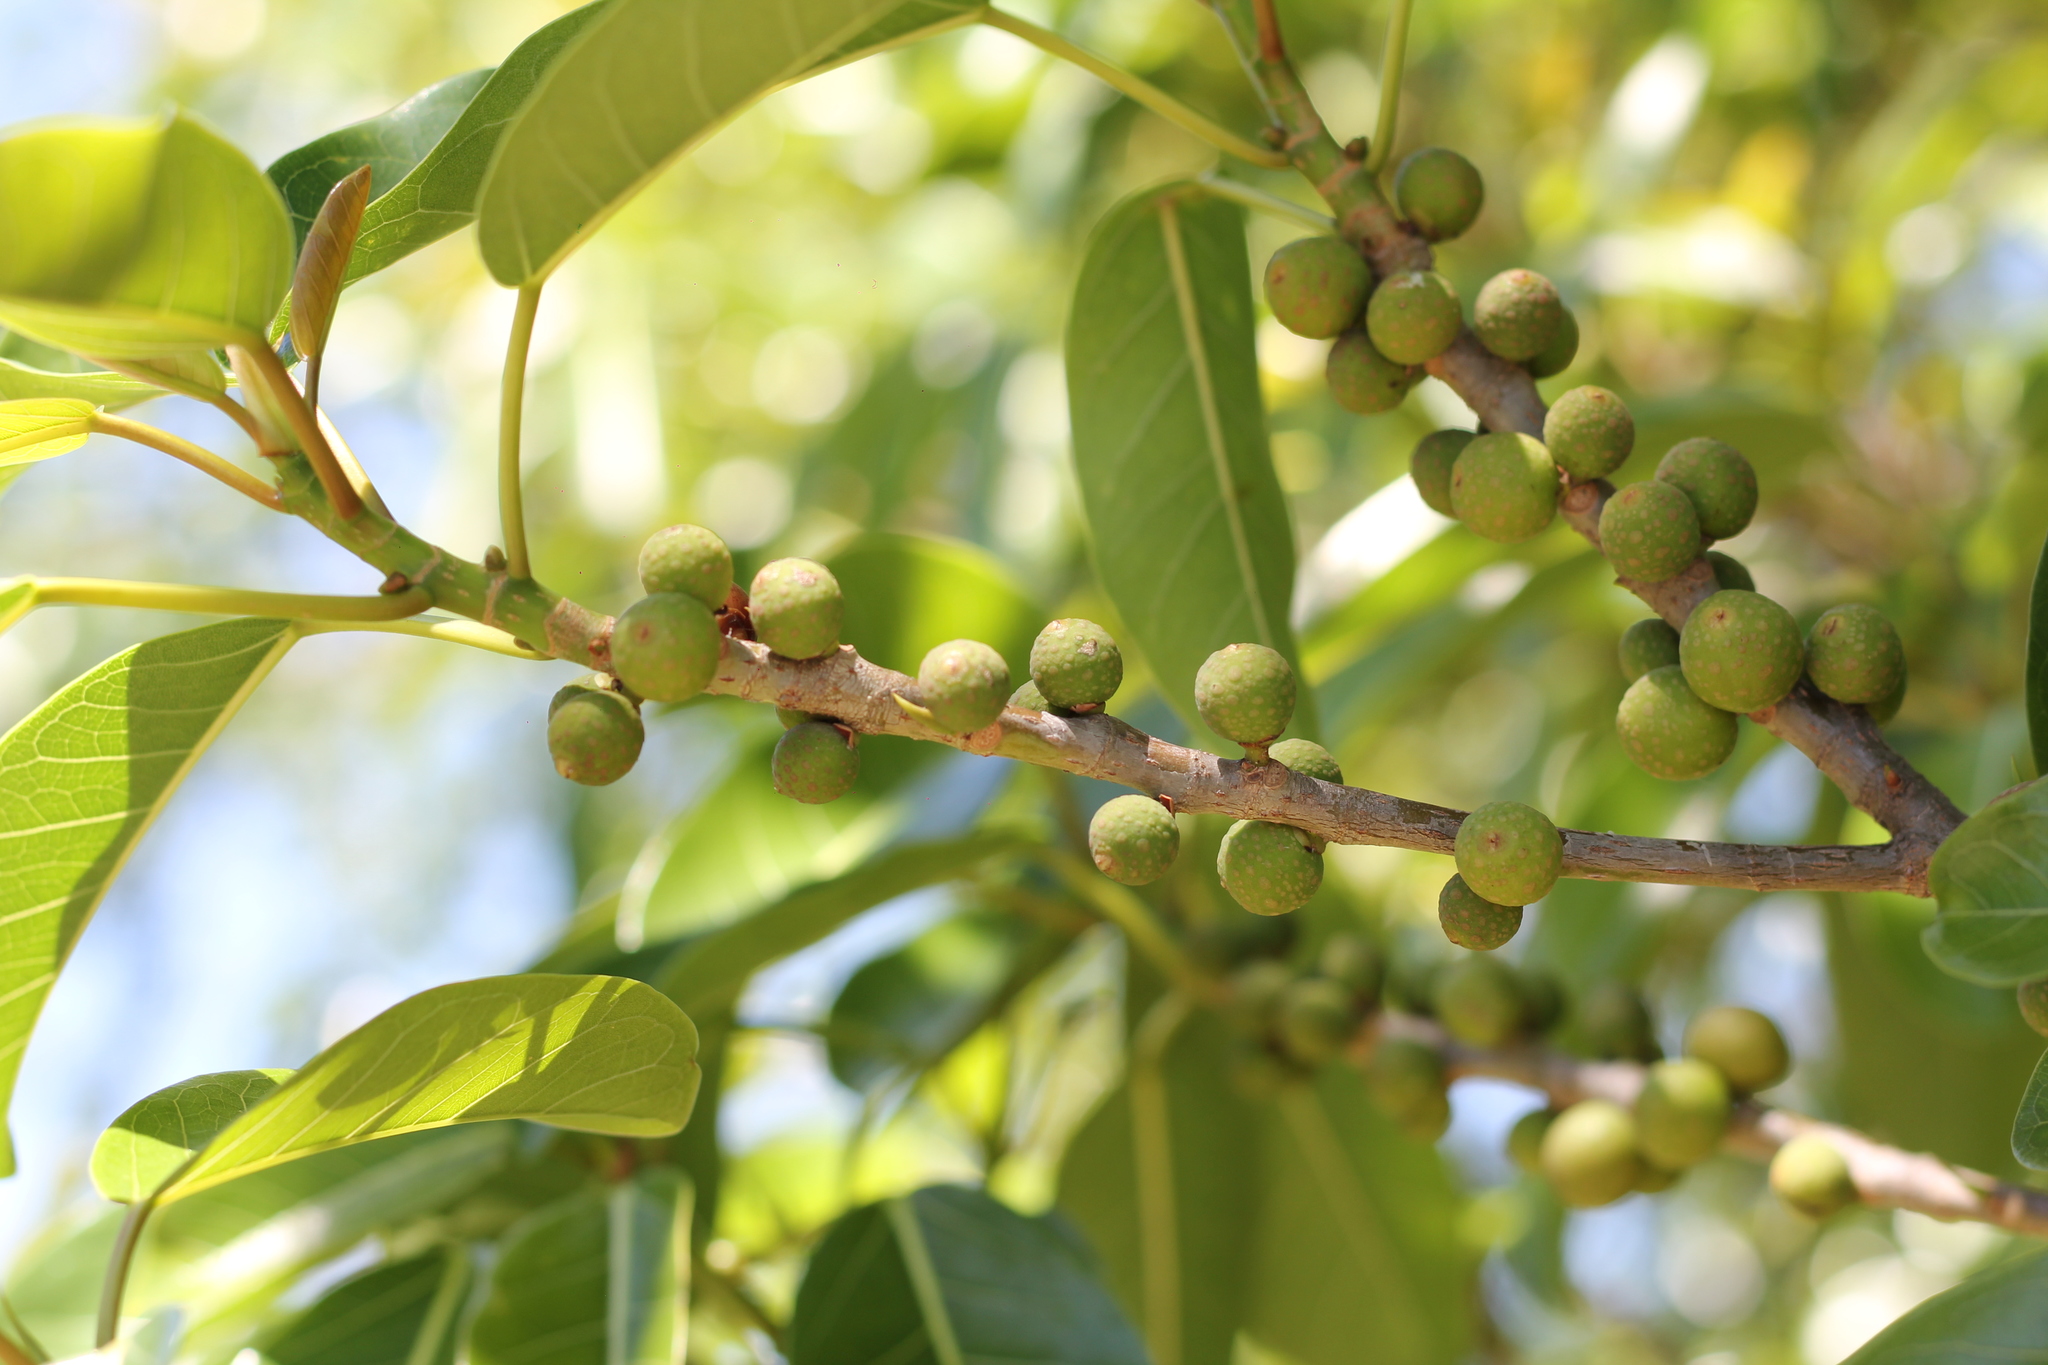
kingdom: Plantae
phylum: Tracheophyta
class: Magnoliopsida
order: Rosales
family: Moraceae
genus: Ficus
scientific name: Ficus luschnathiana
